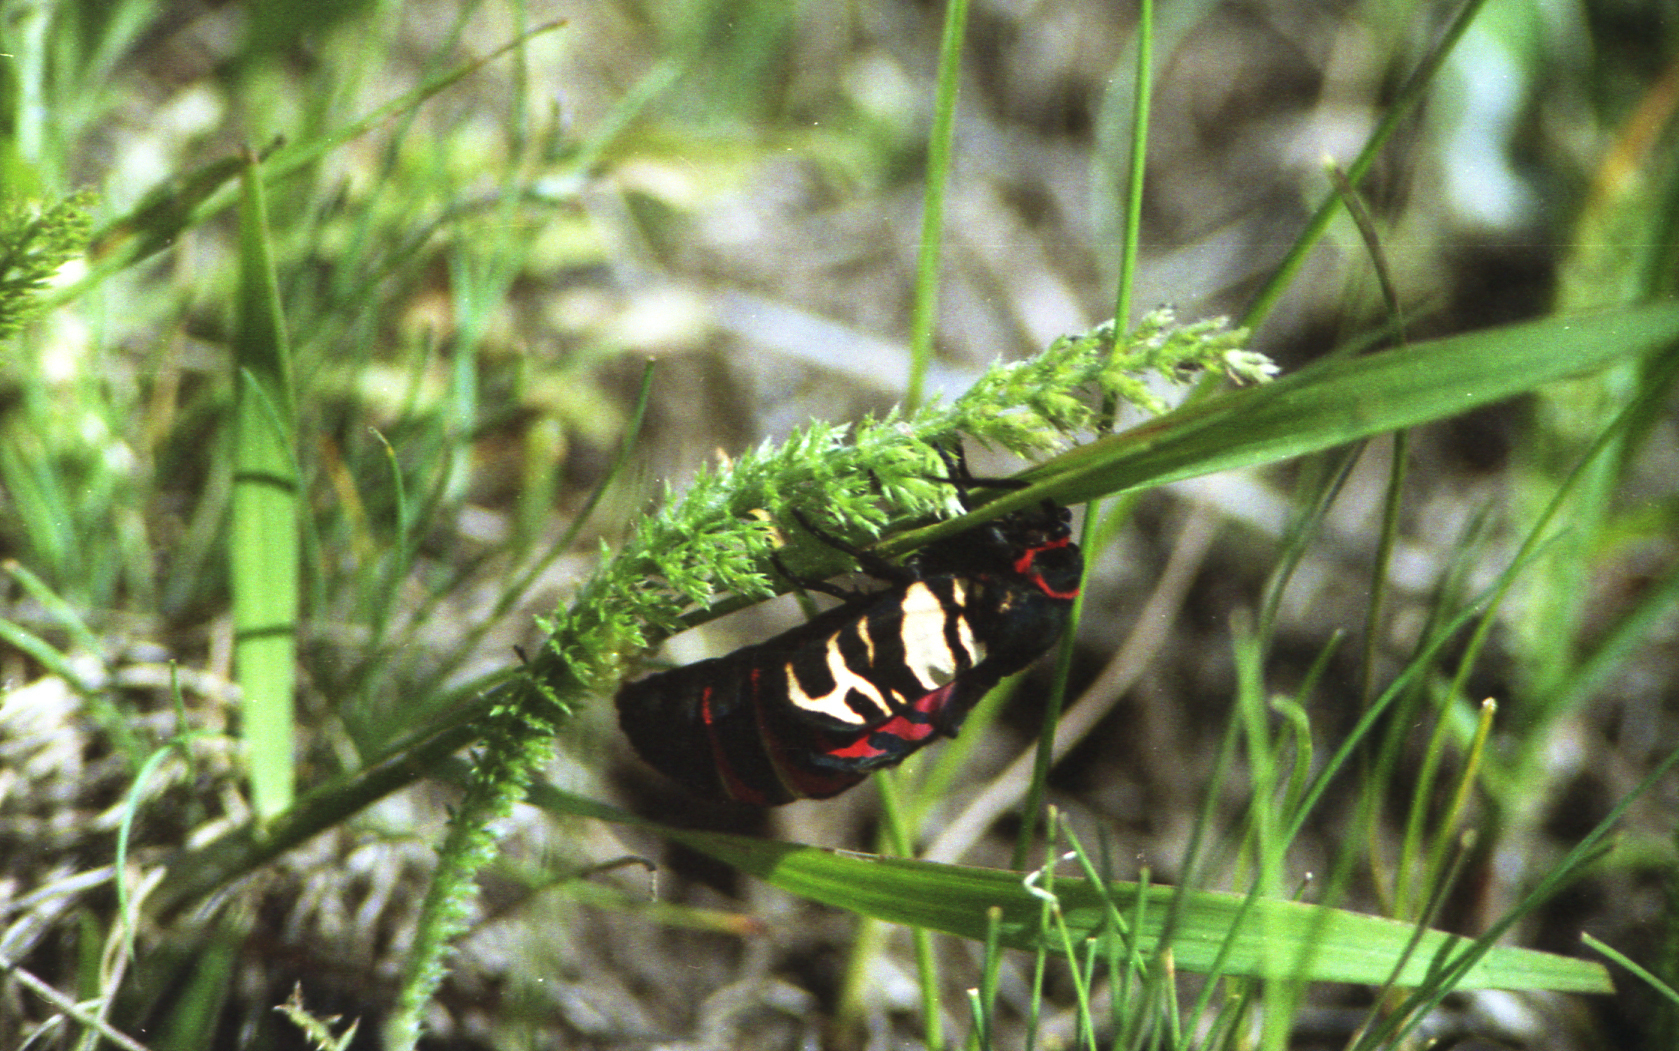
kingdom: Animalia
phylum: Arthropoda
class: Insecta
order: Lepidoptera
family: Erebidae
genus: Eucharia
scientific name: Eucharia festiva
